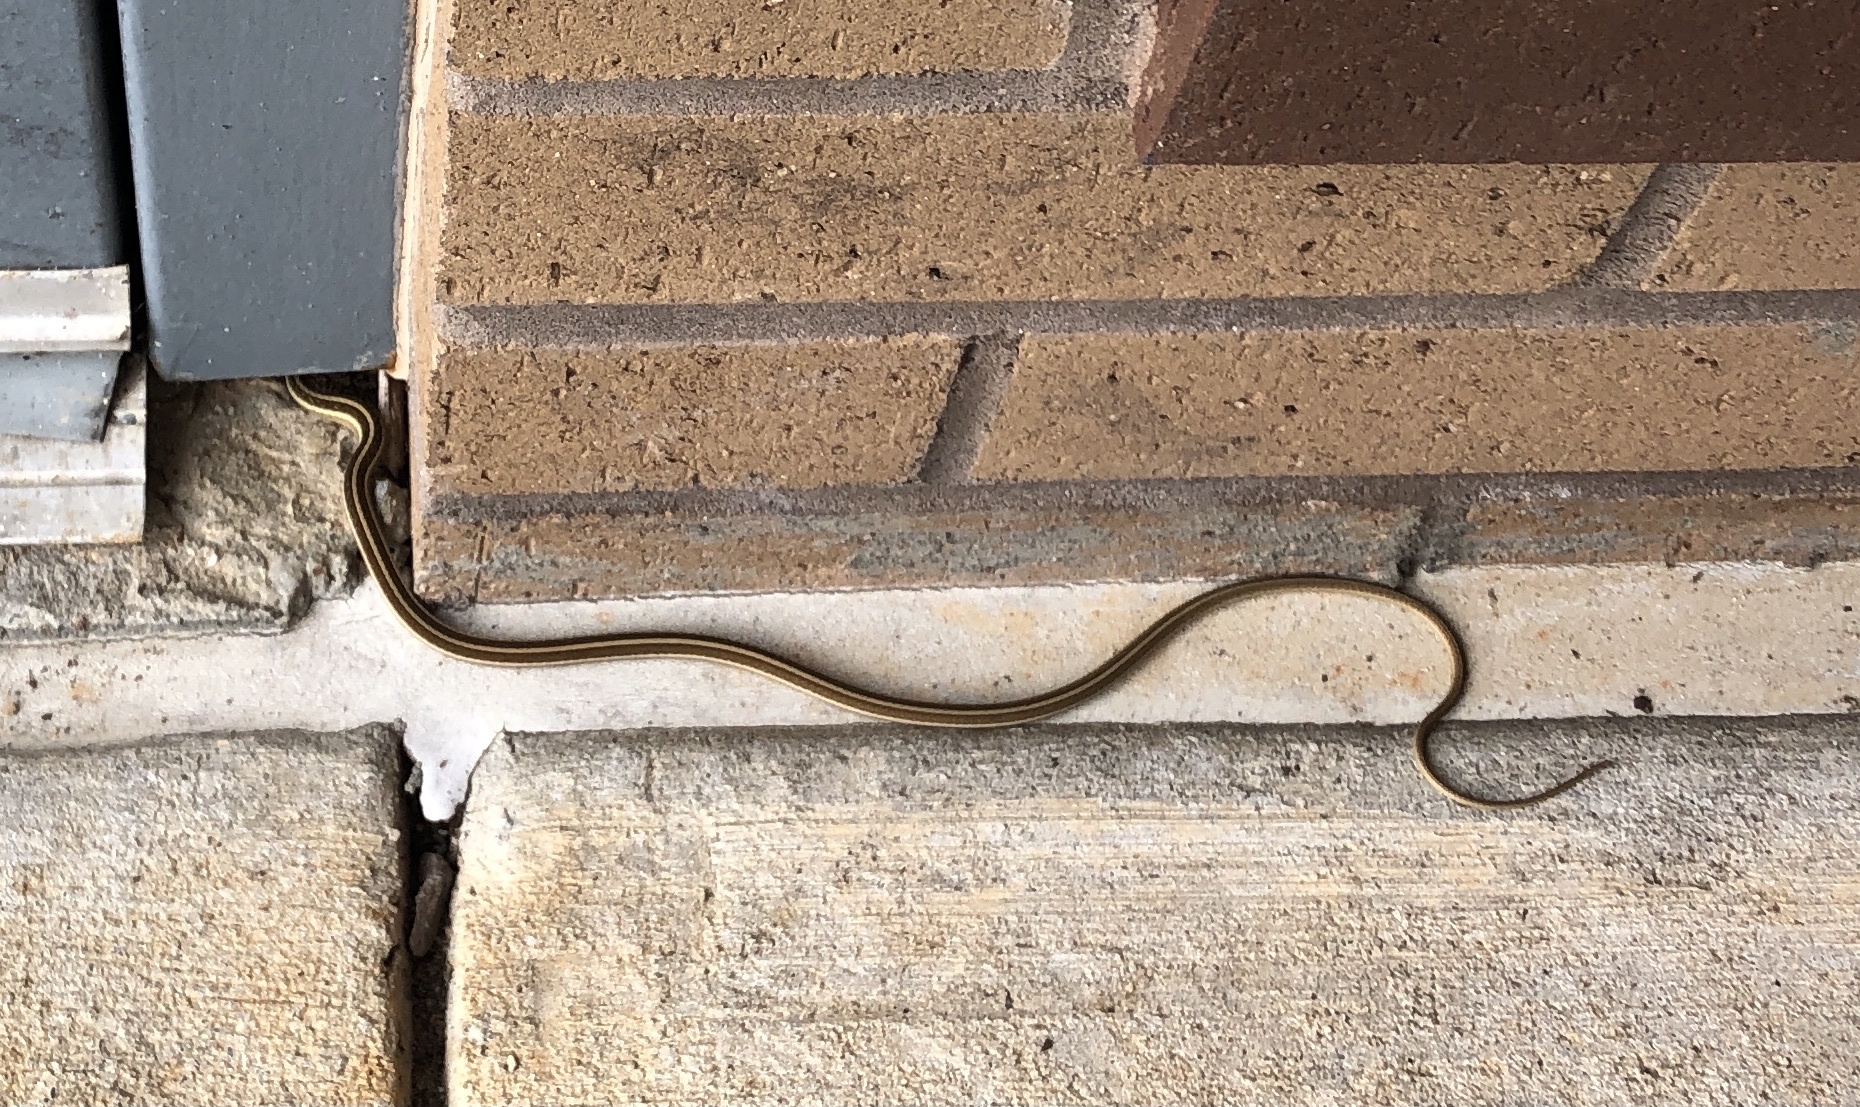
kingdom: Animalia
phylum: Chordata
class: Squamata
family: Colubridae
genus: Thamnophis
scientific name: Thamnophis saurita
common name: Eastern ribbonsnake
